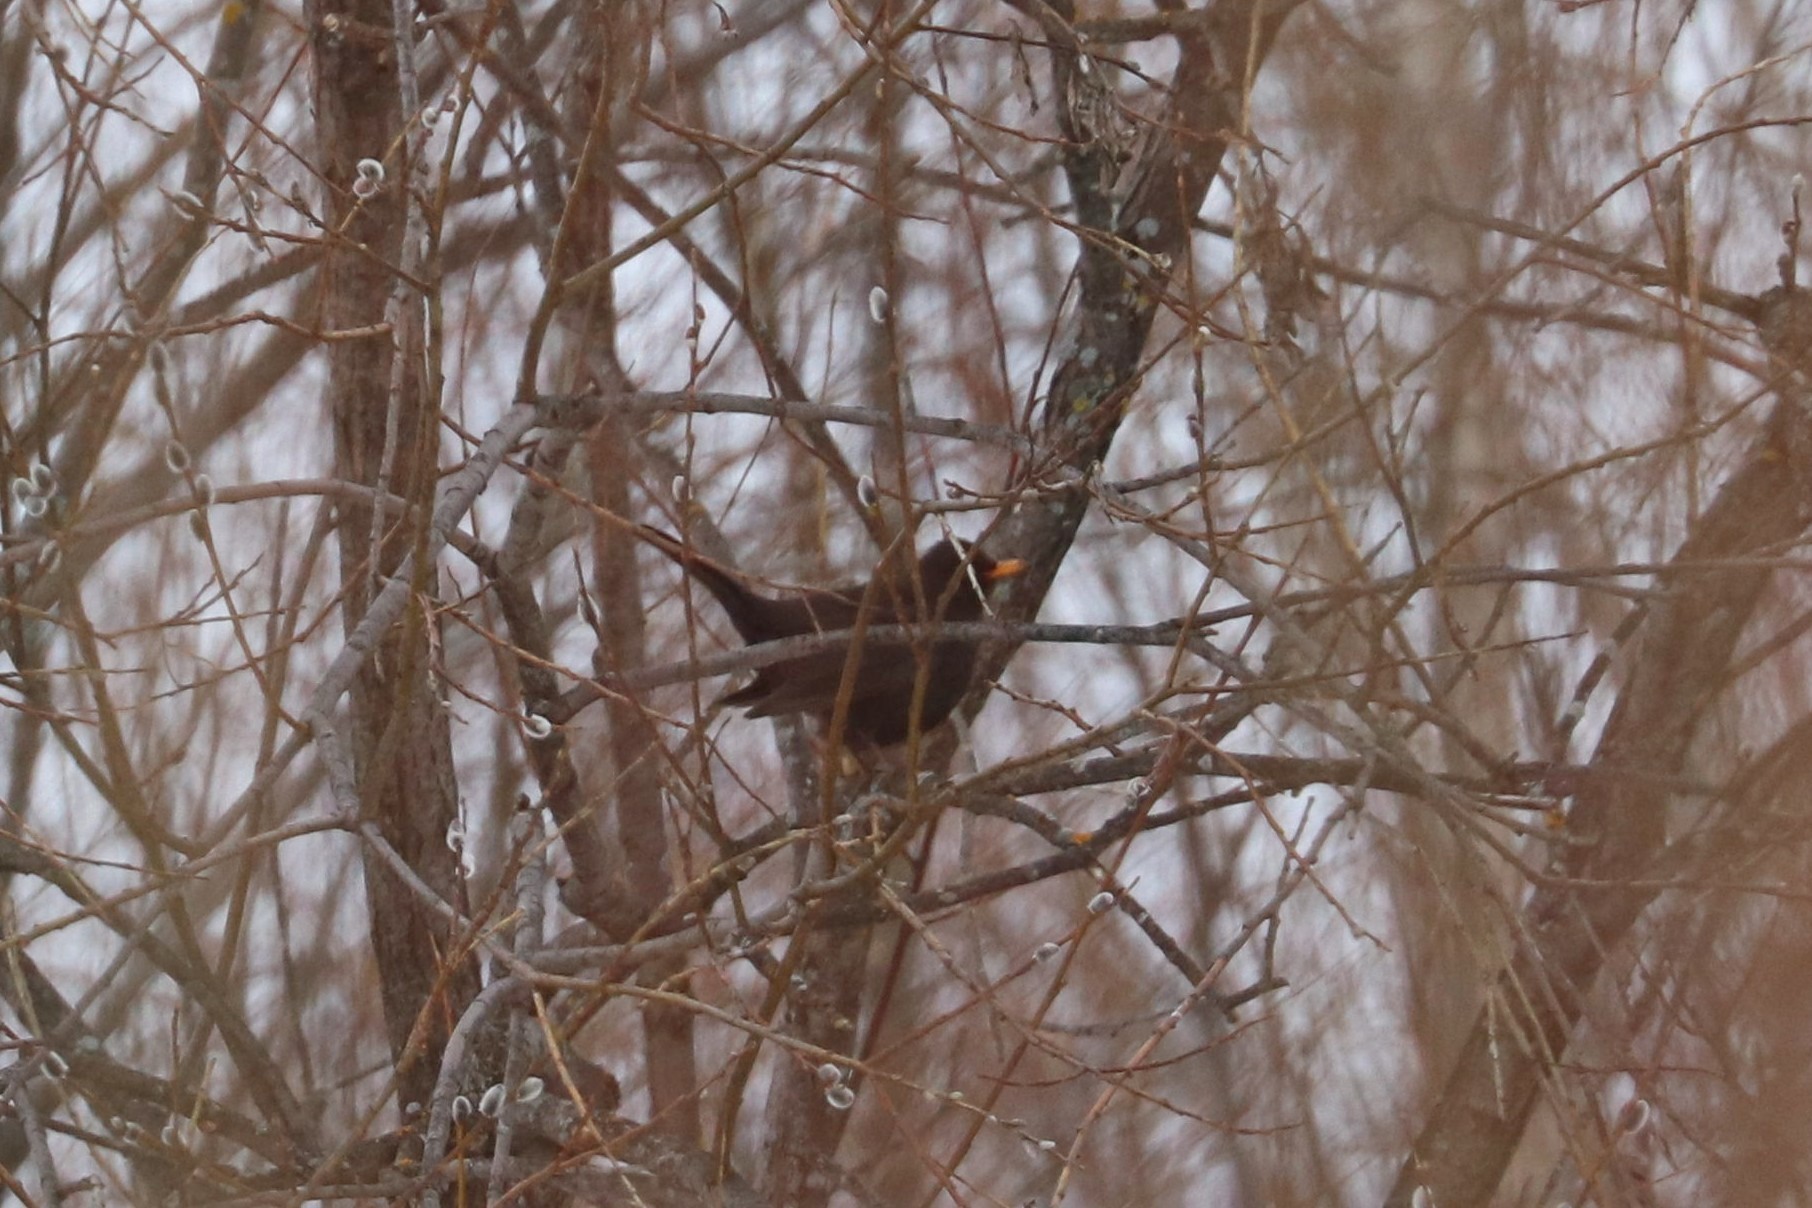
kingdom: Animalia
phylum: Chordata
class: Aves
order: Passeriformes
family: Turdidae
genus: Turdus
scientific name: Turdus merula
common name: Common blackbird
